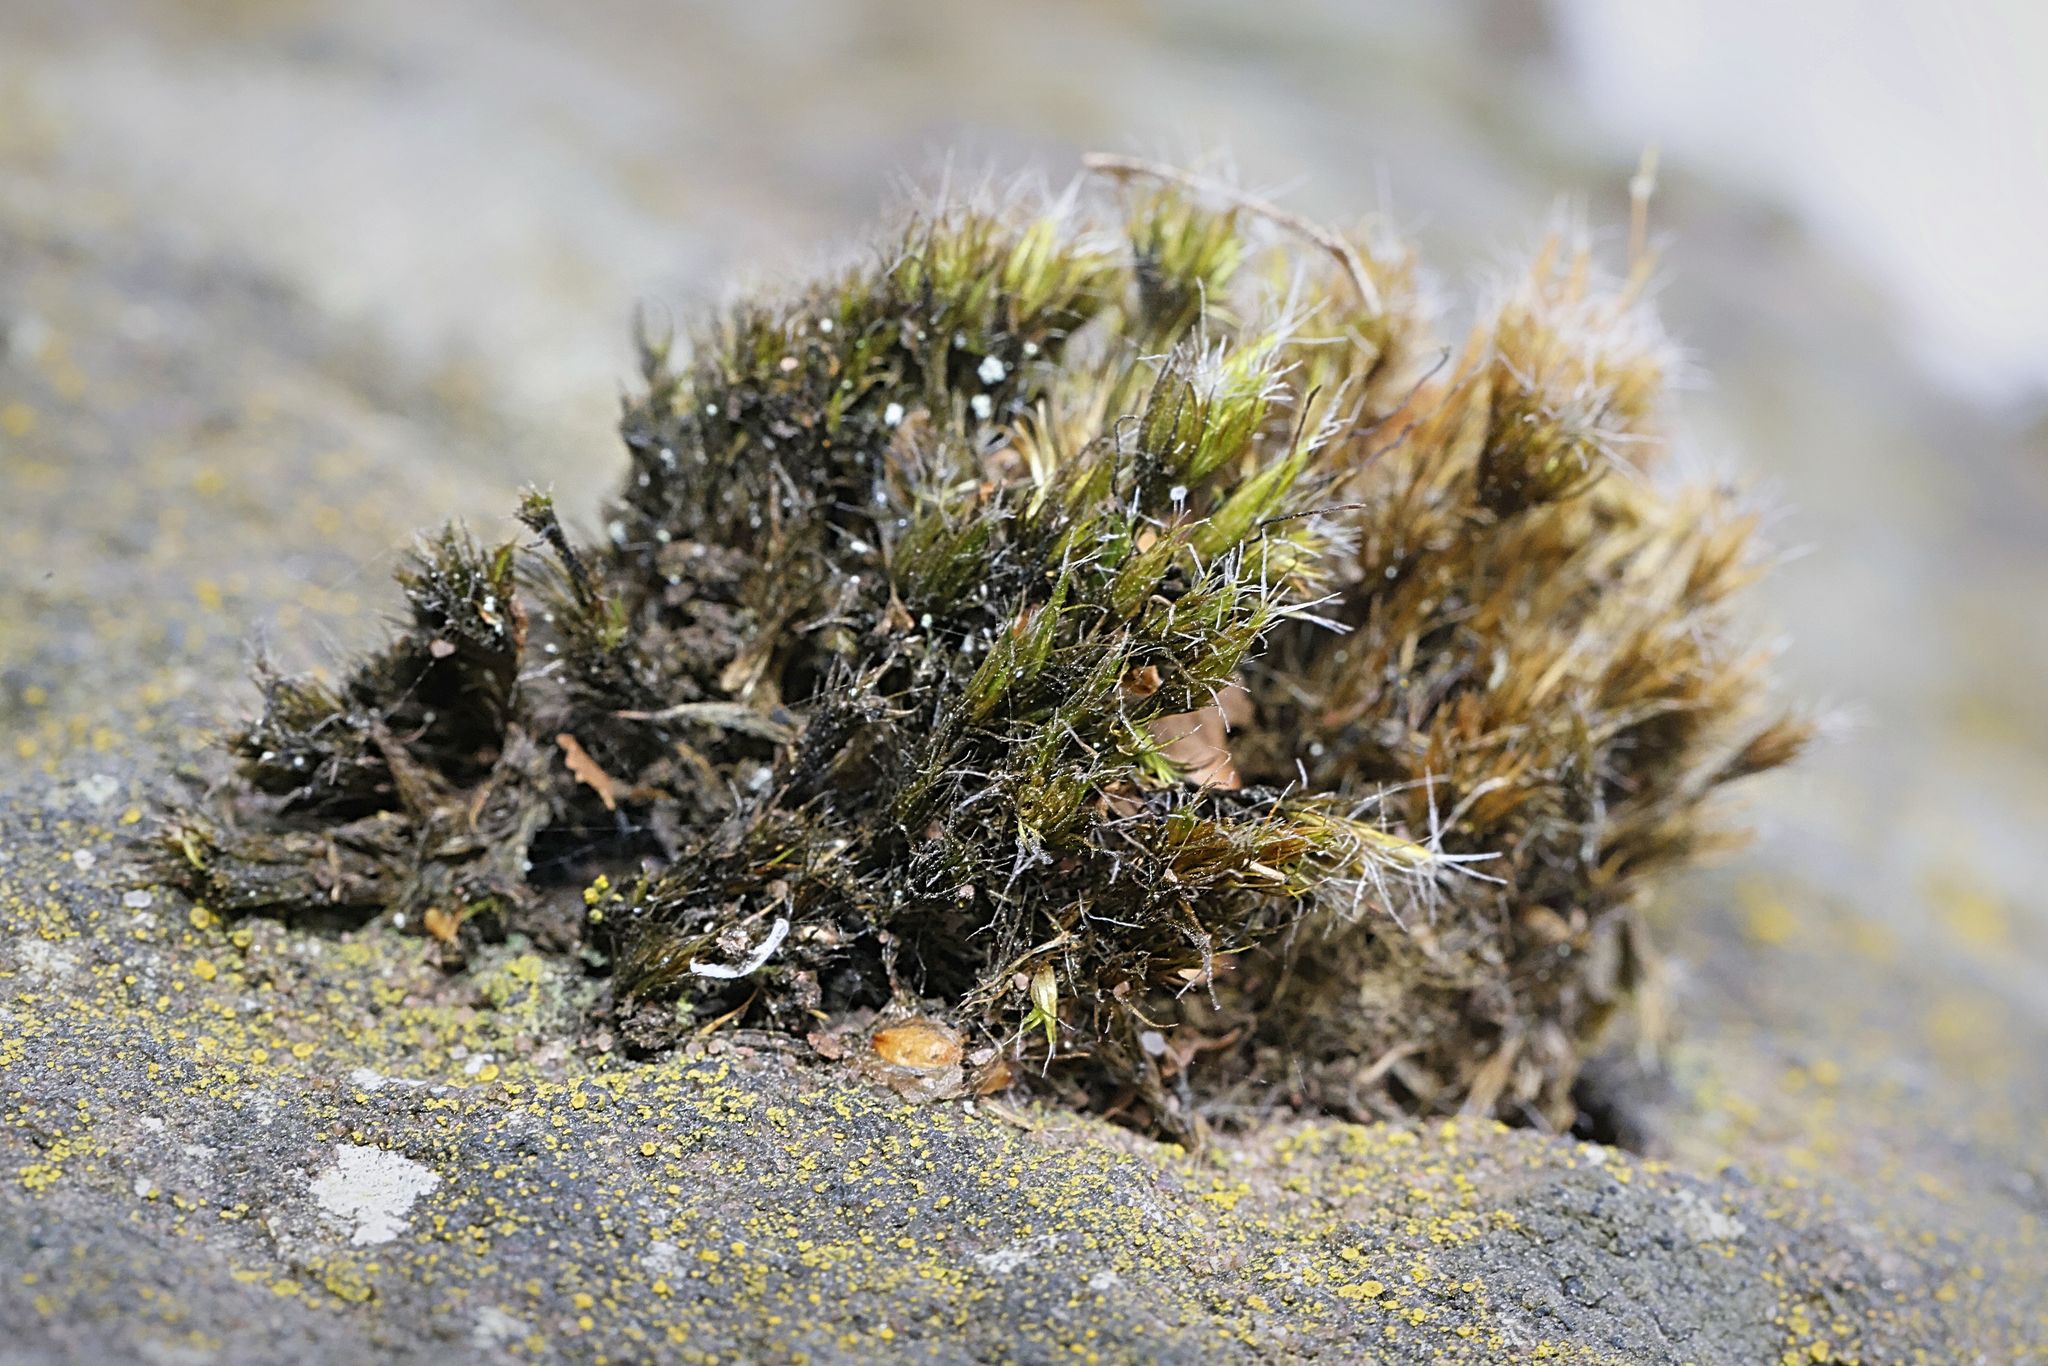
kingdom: Plantae
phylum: Bryophyta
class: Bryopsida
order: Dicranales
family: Leucobryaceae
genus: Campylopus
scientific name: Campylopus introflexus
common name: Heath star moss
